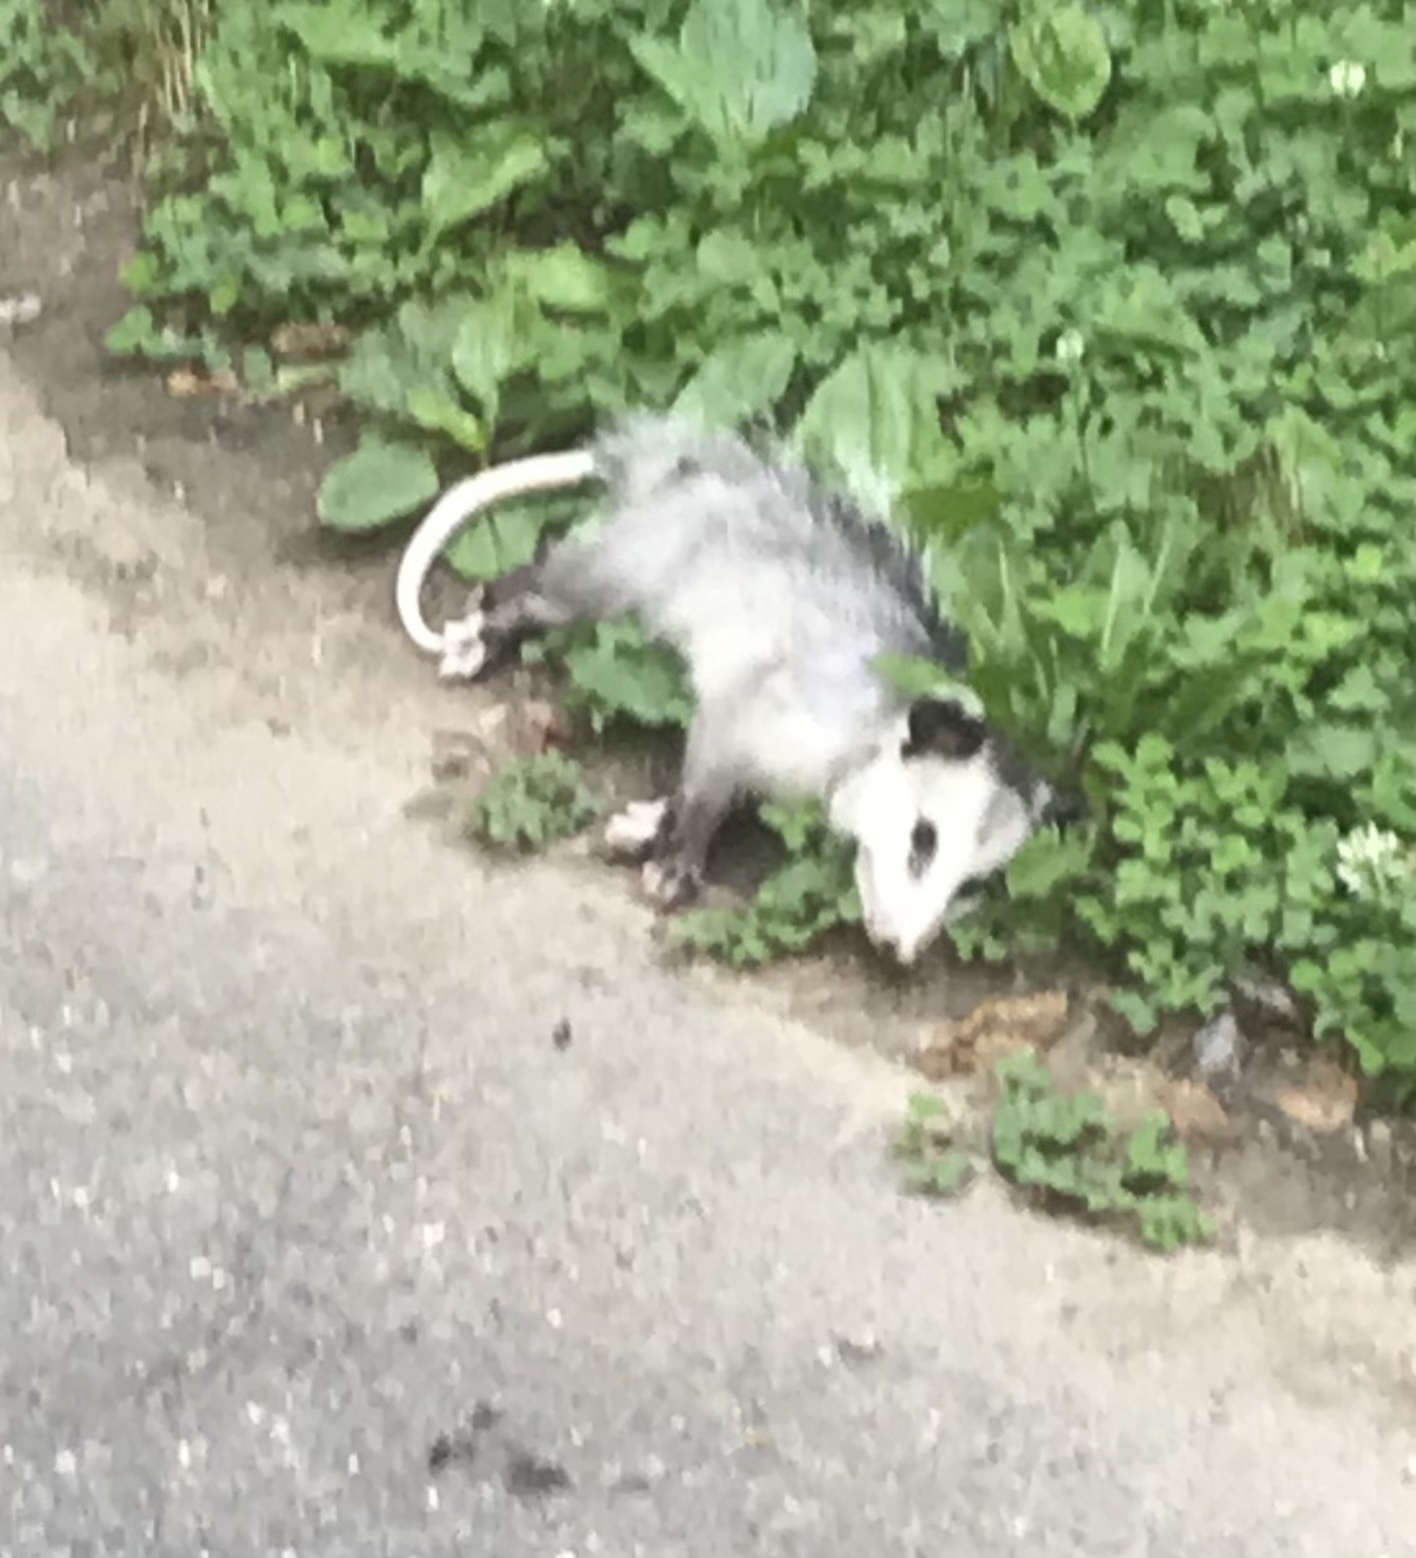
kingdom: Animalia
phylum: Chordata
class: Mammalia
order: Didelphimorphia
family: Didelphidae
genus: Didelphis
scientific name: Didelphis virginiana
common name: Virginia opossum
